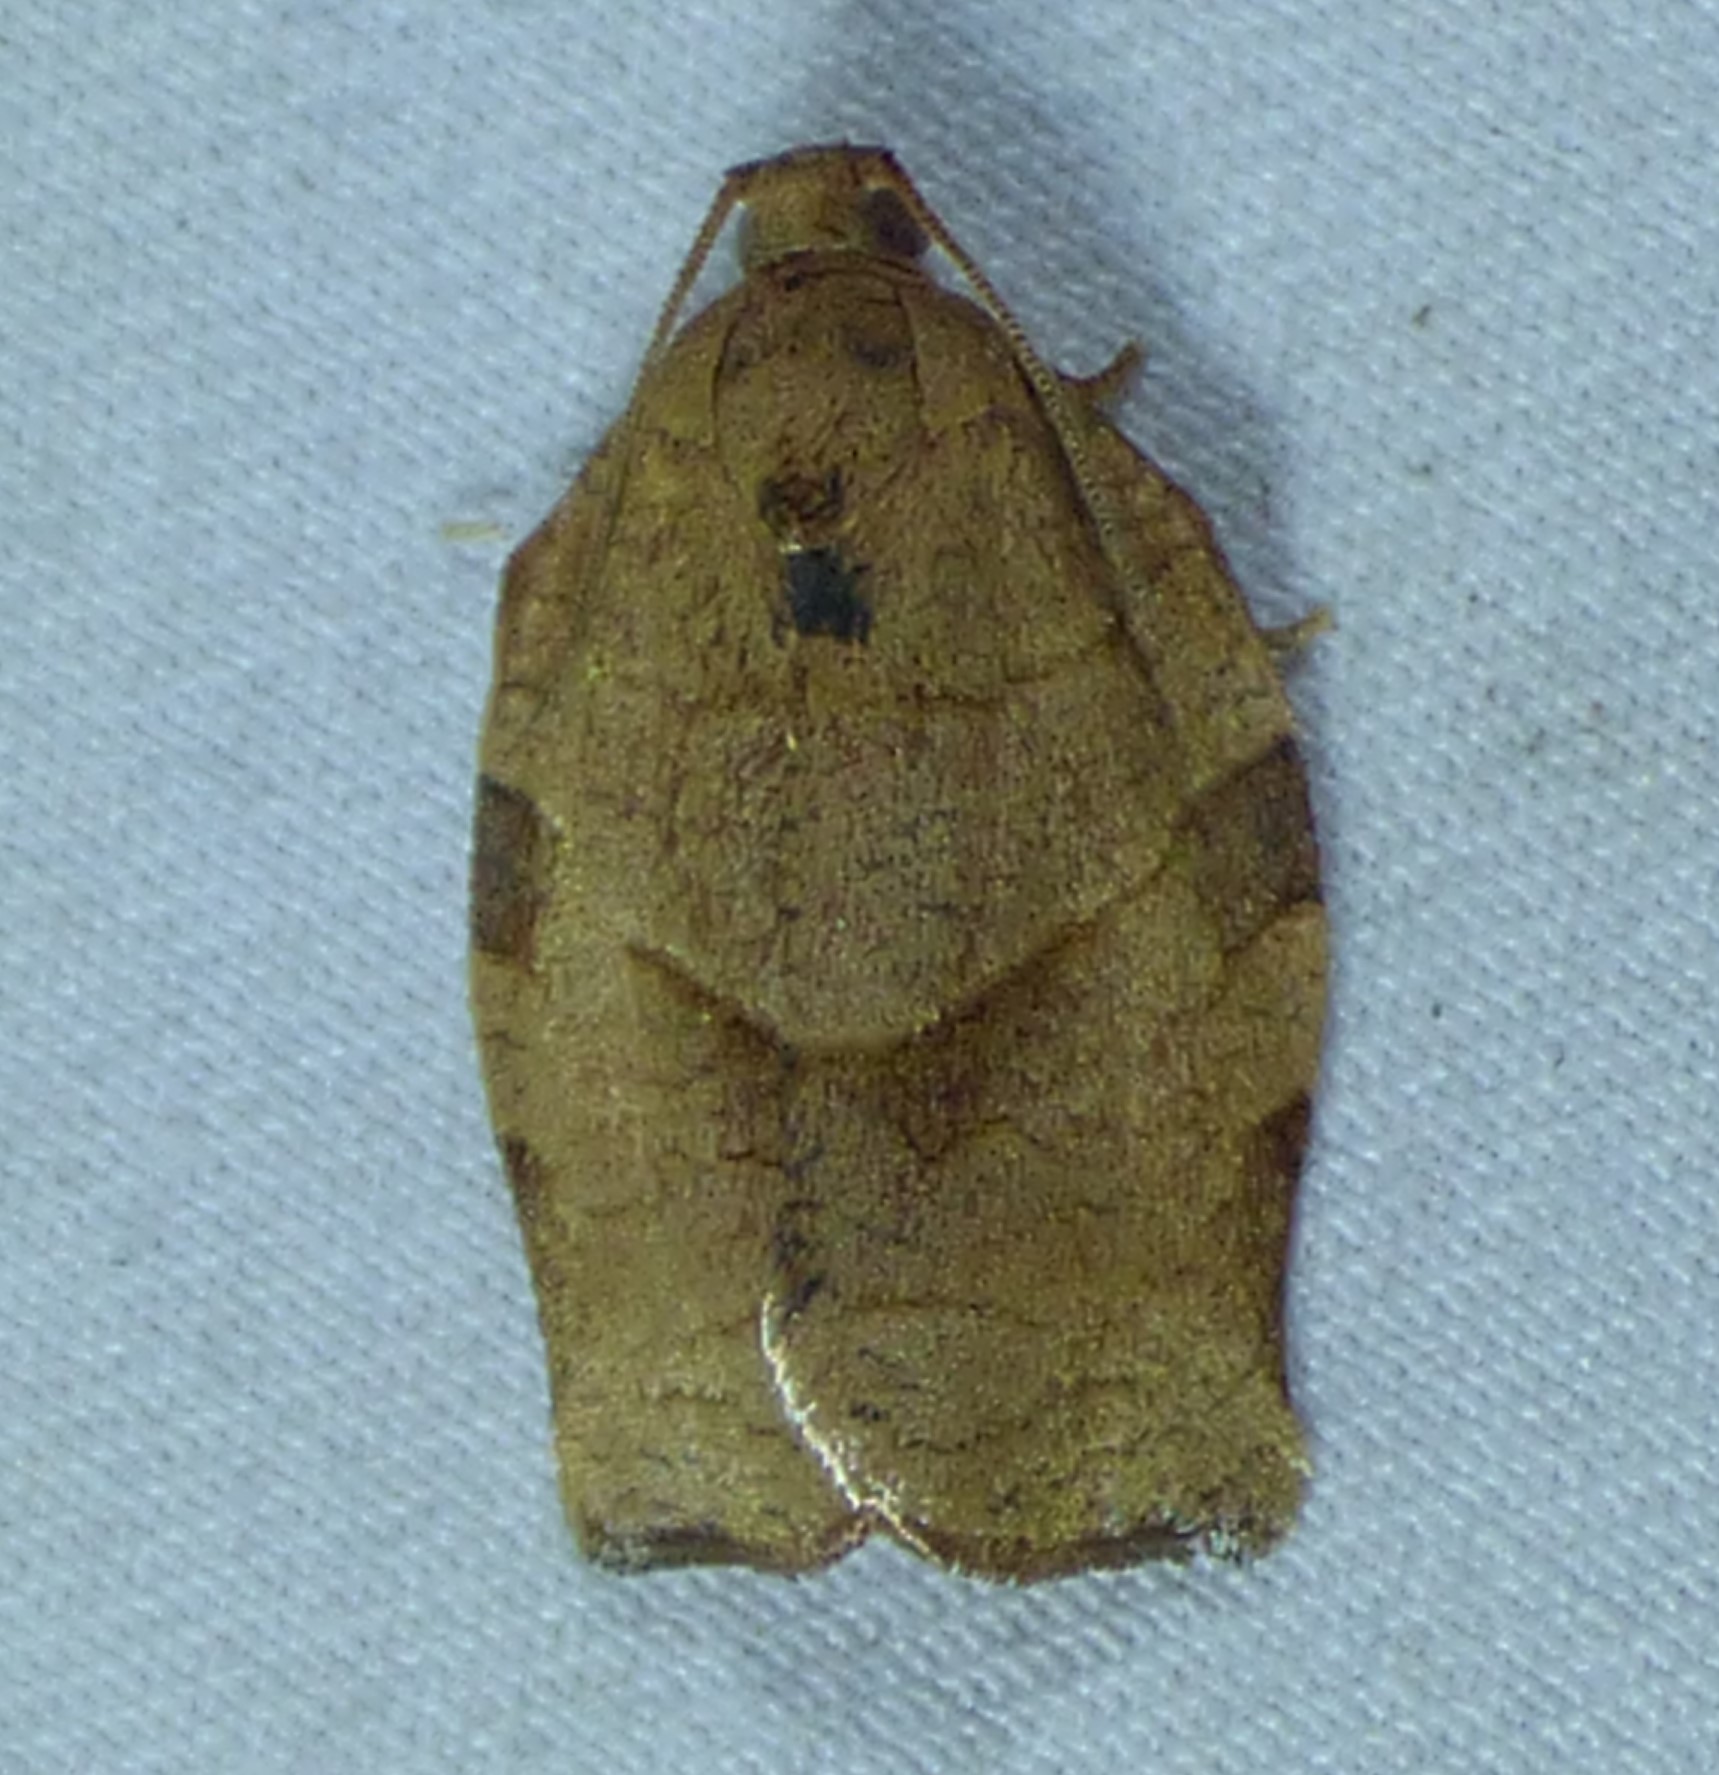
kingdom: Animalia
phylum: Arthropoda
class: Insecta
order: Lepidoptera
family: Tortricidae
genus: Choristoneura
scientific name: Choristoneura rosaceana
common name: Oblique-banded leafroller moth
